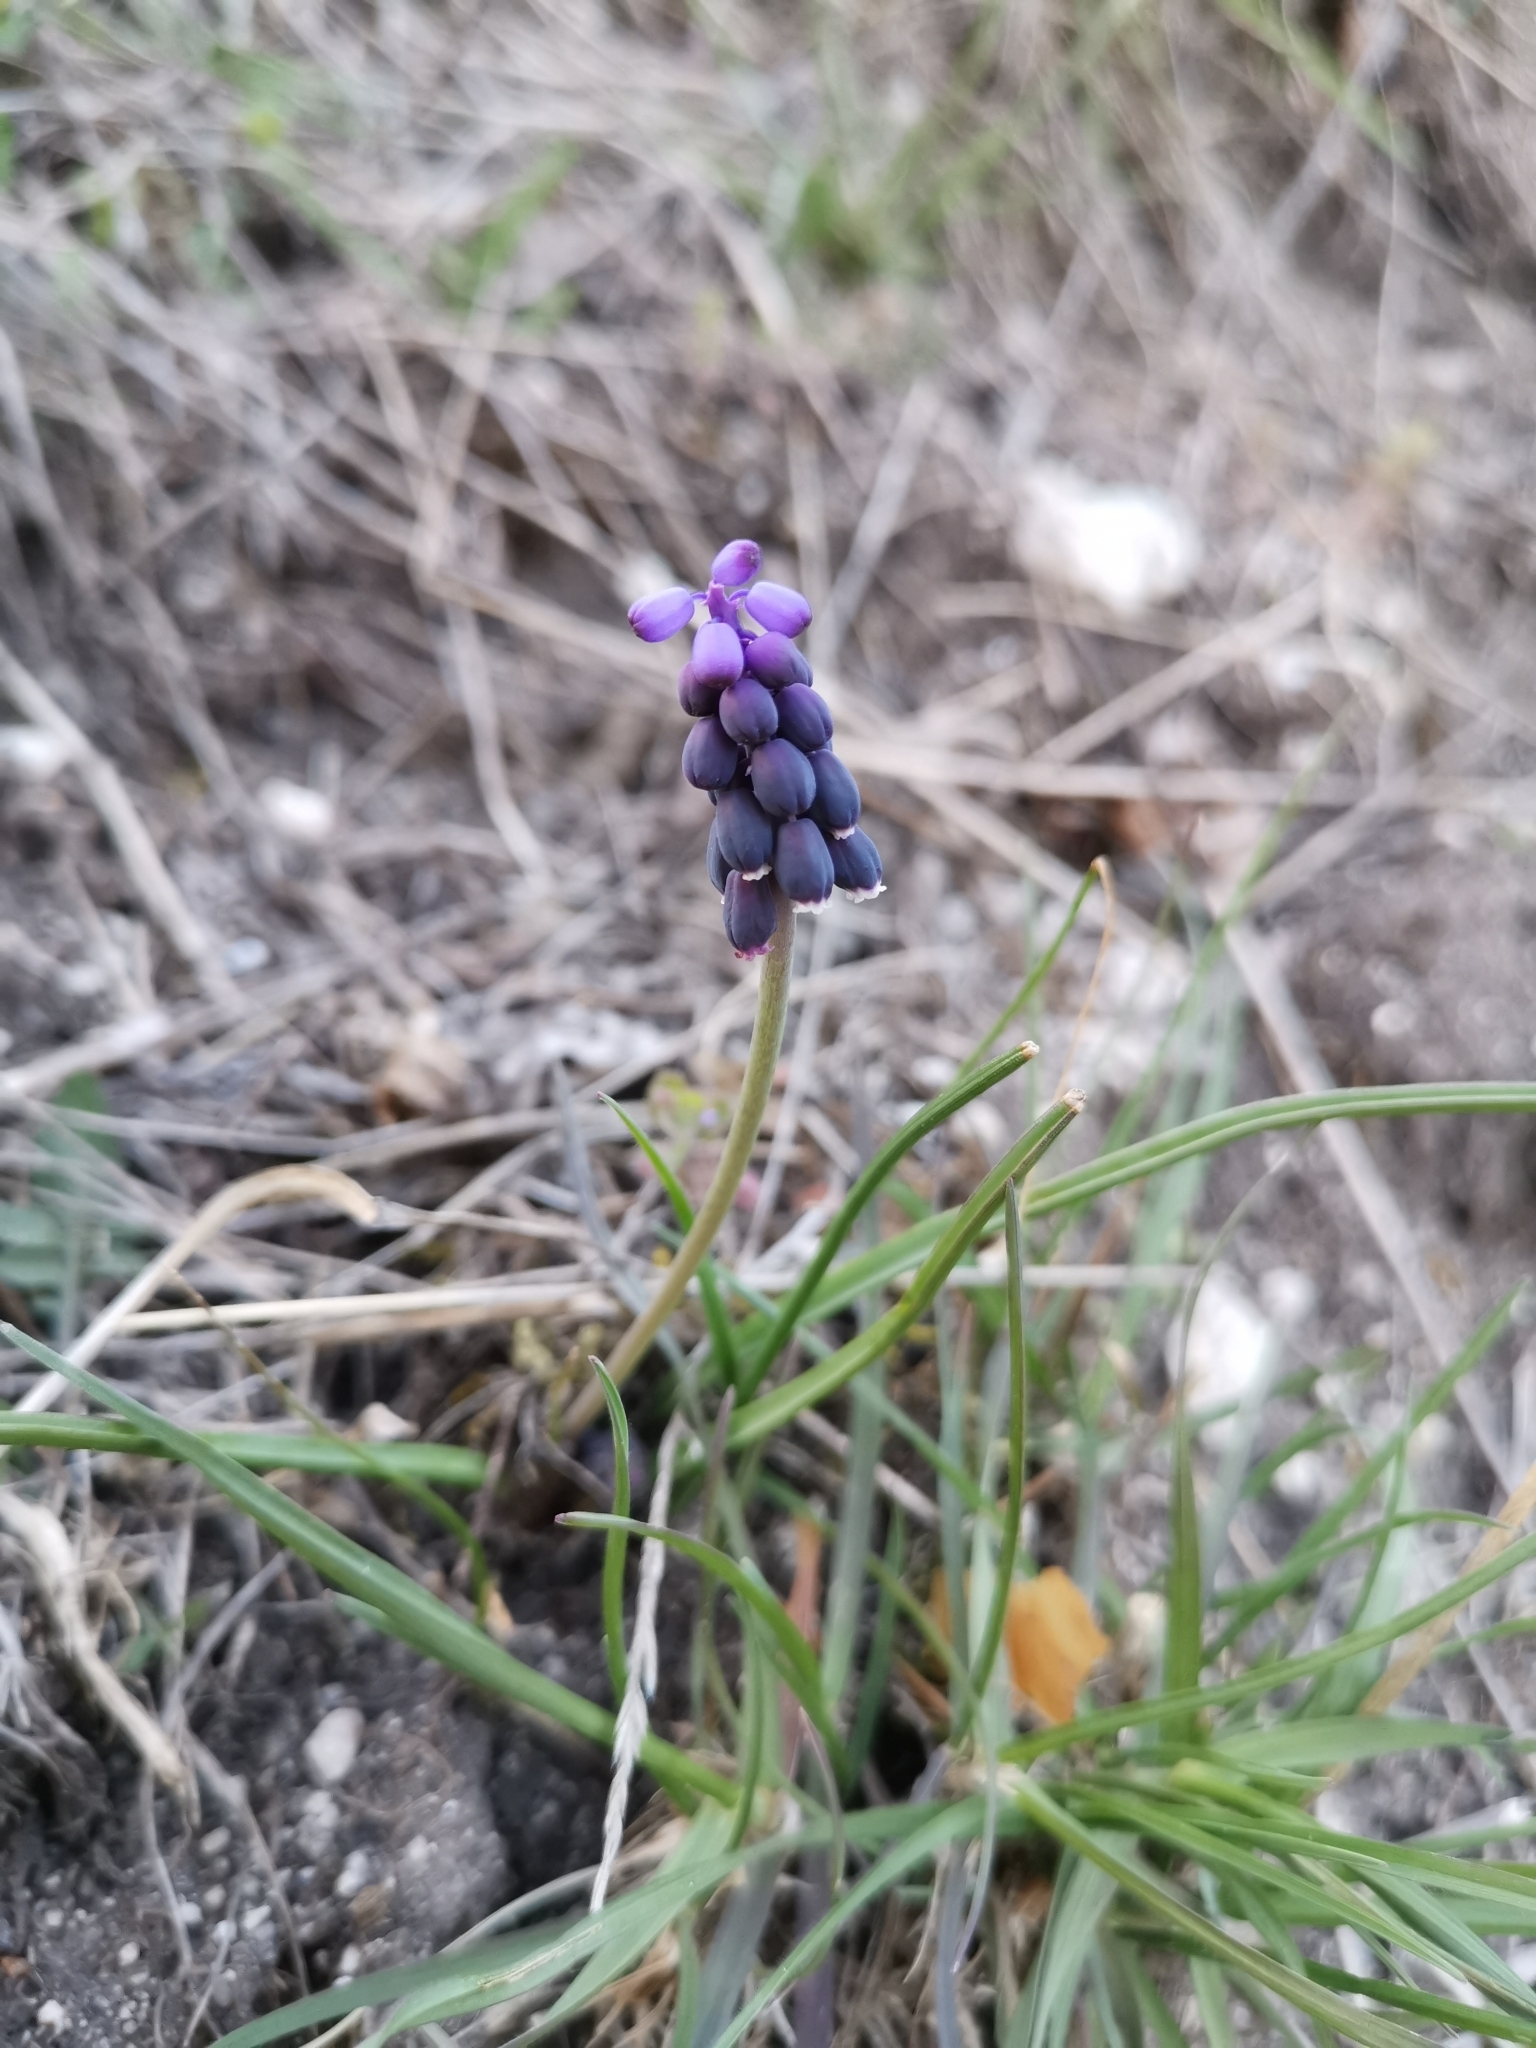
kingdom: Plantae
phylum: Tracheophyta
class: Liliopsida
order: Asparagales
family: Asparagaceae
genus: Muscari
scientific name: Muscari neglectum
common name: Grape-hyacinth
